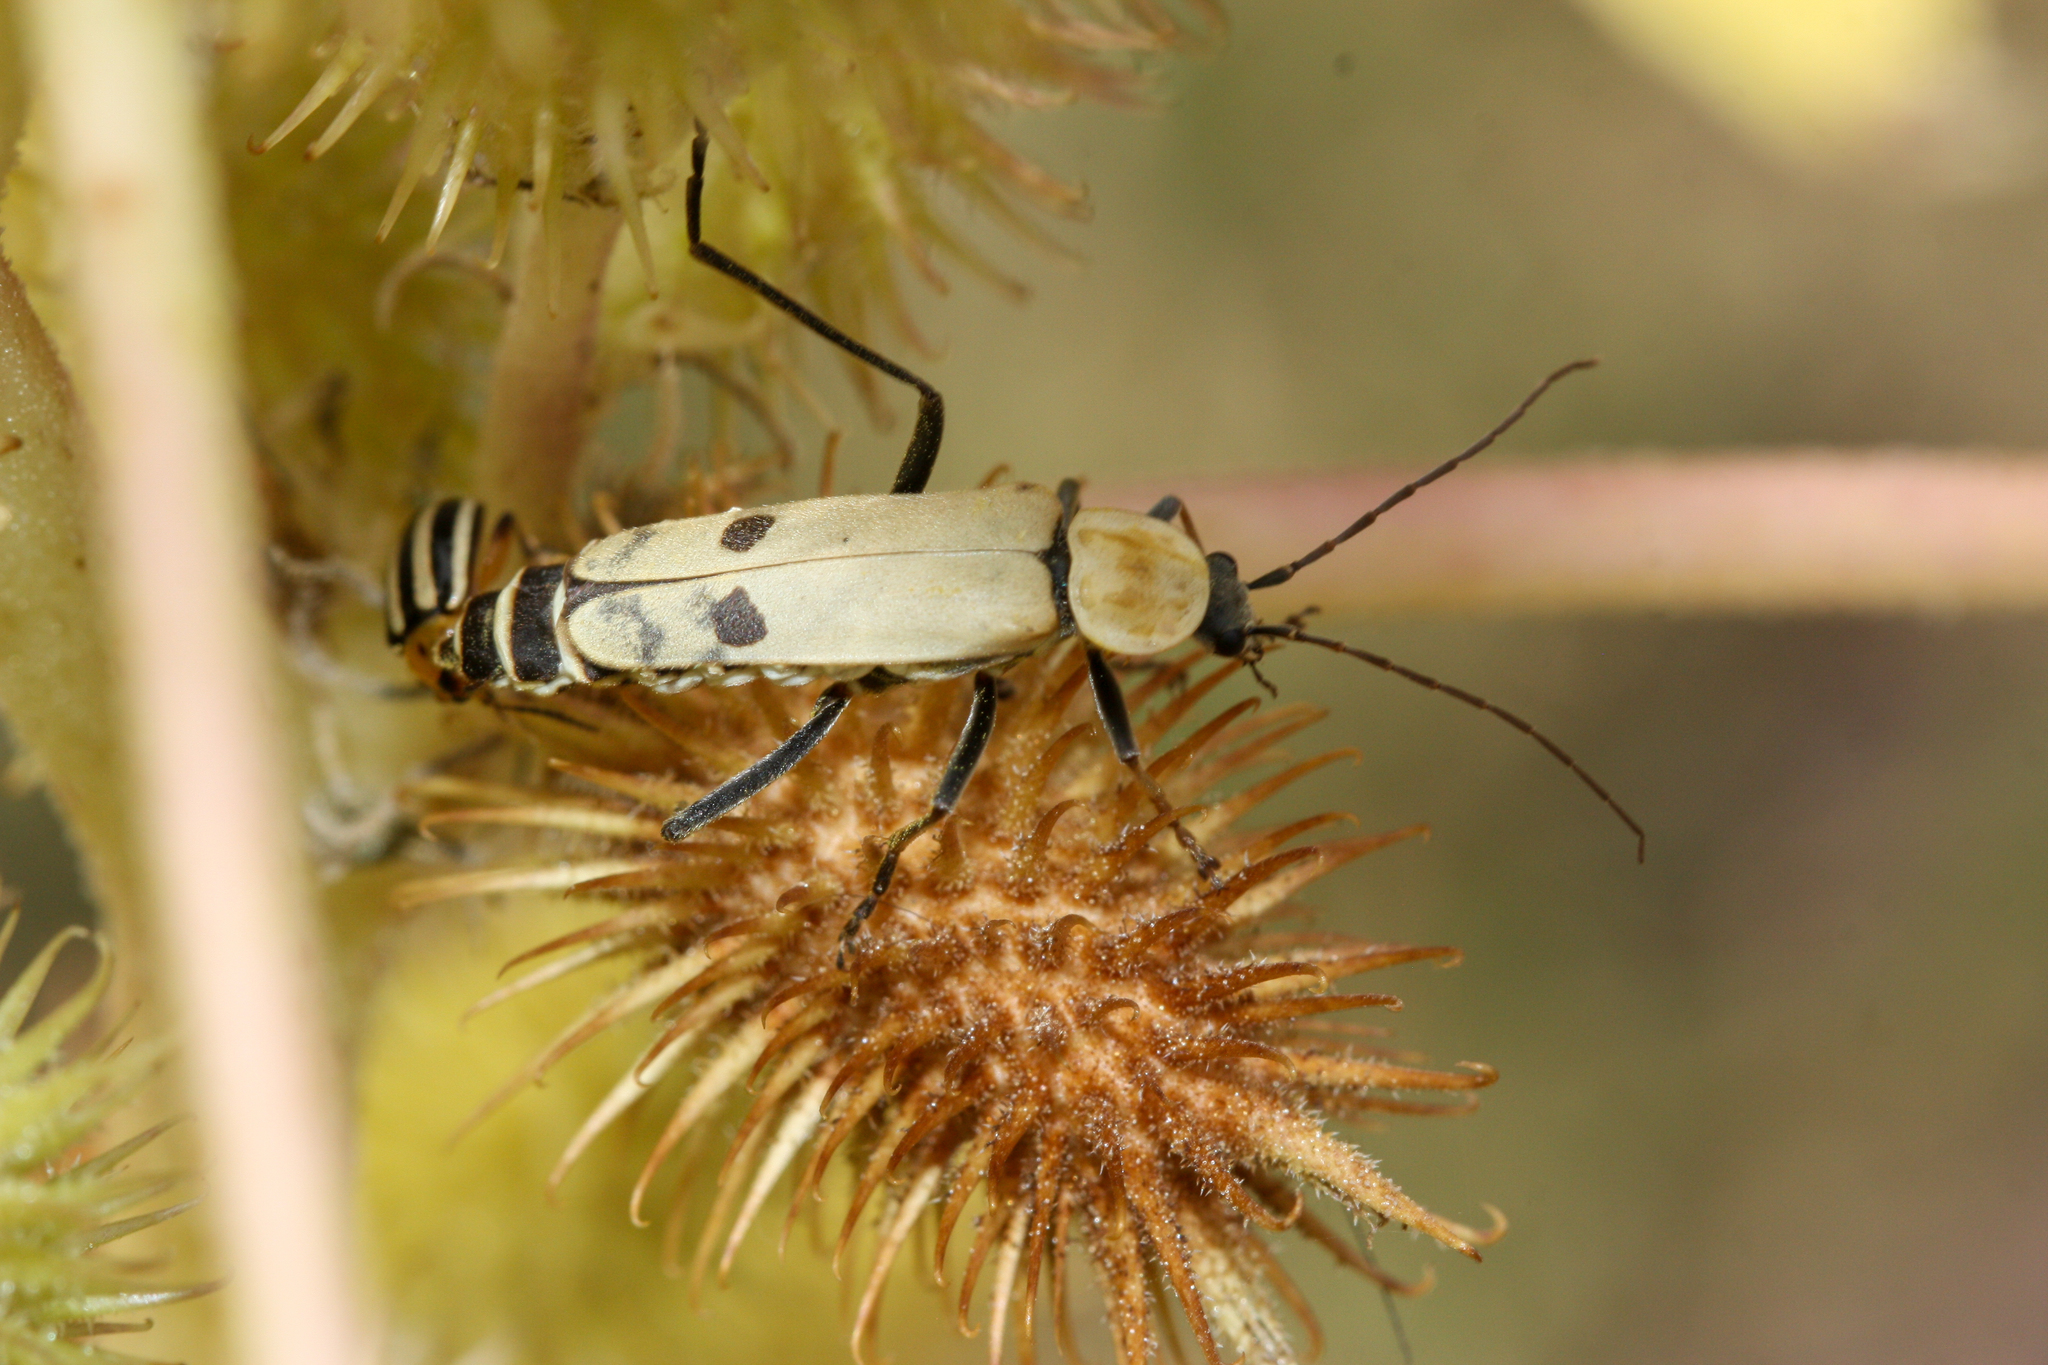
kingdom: Animalia
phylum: Arthropoda
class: Insecta
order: Coleoptera
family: Cantharidae
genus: Chauliognathus
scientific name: Chauliognathus misellus
